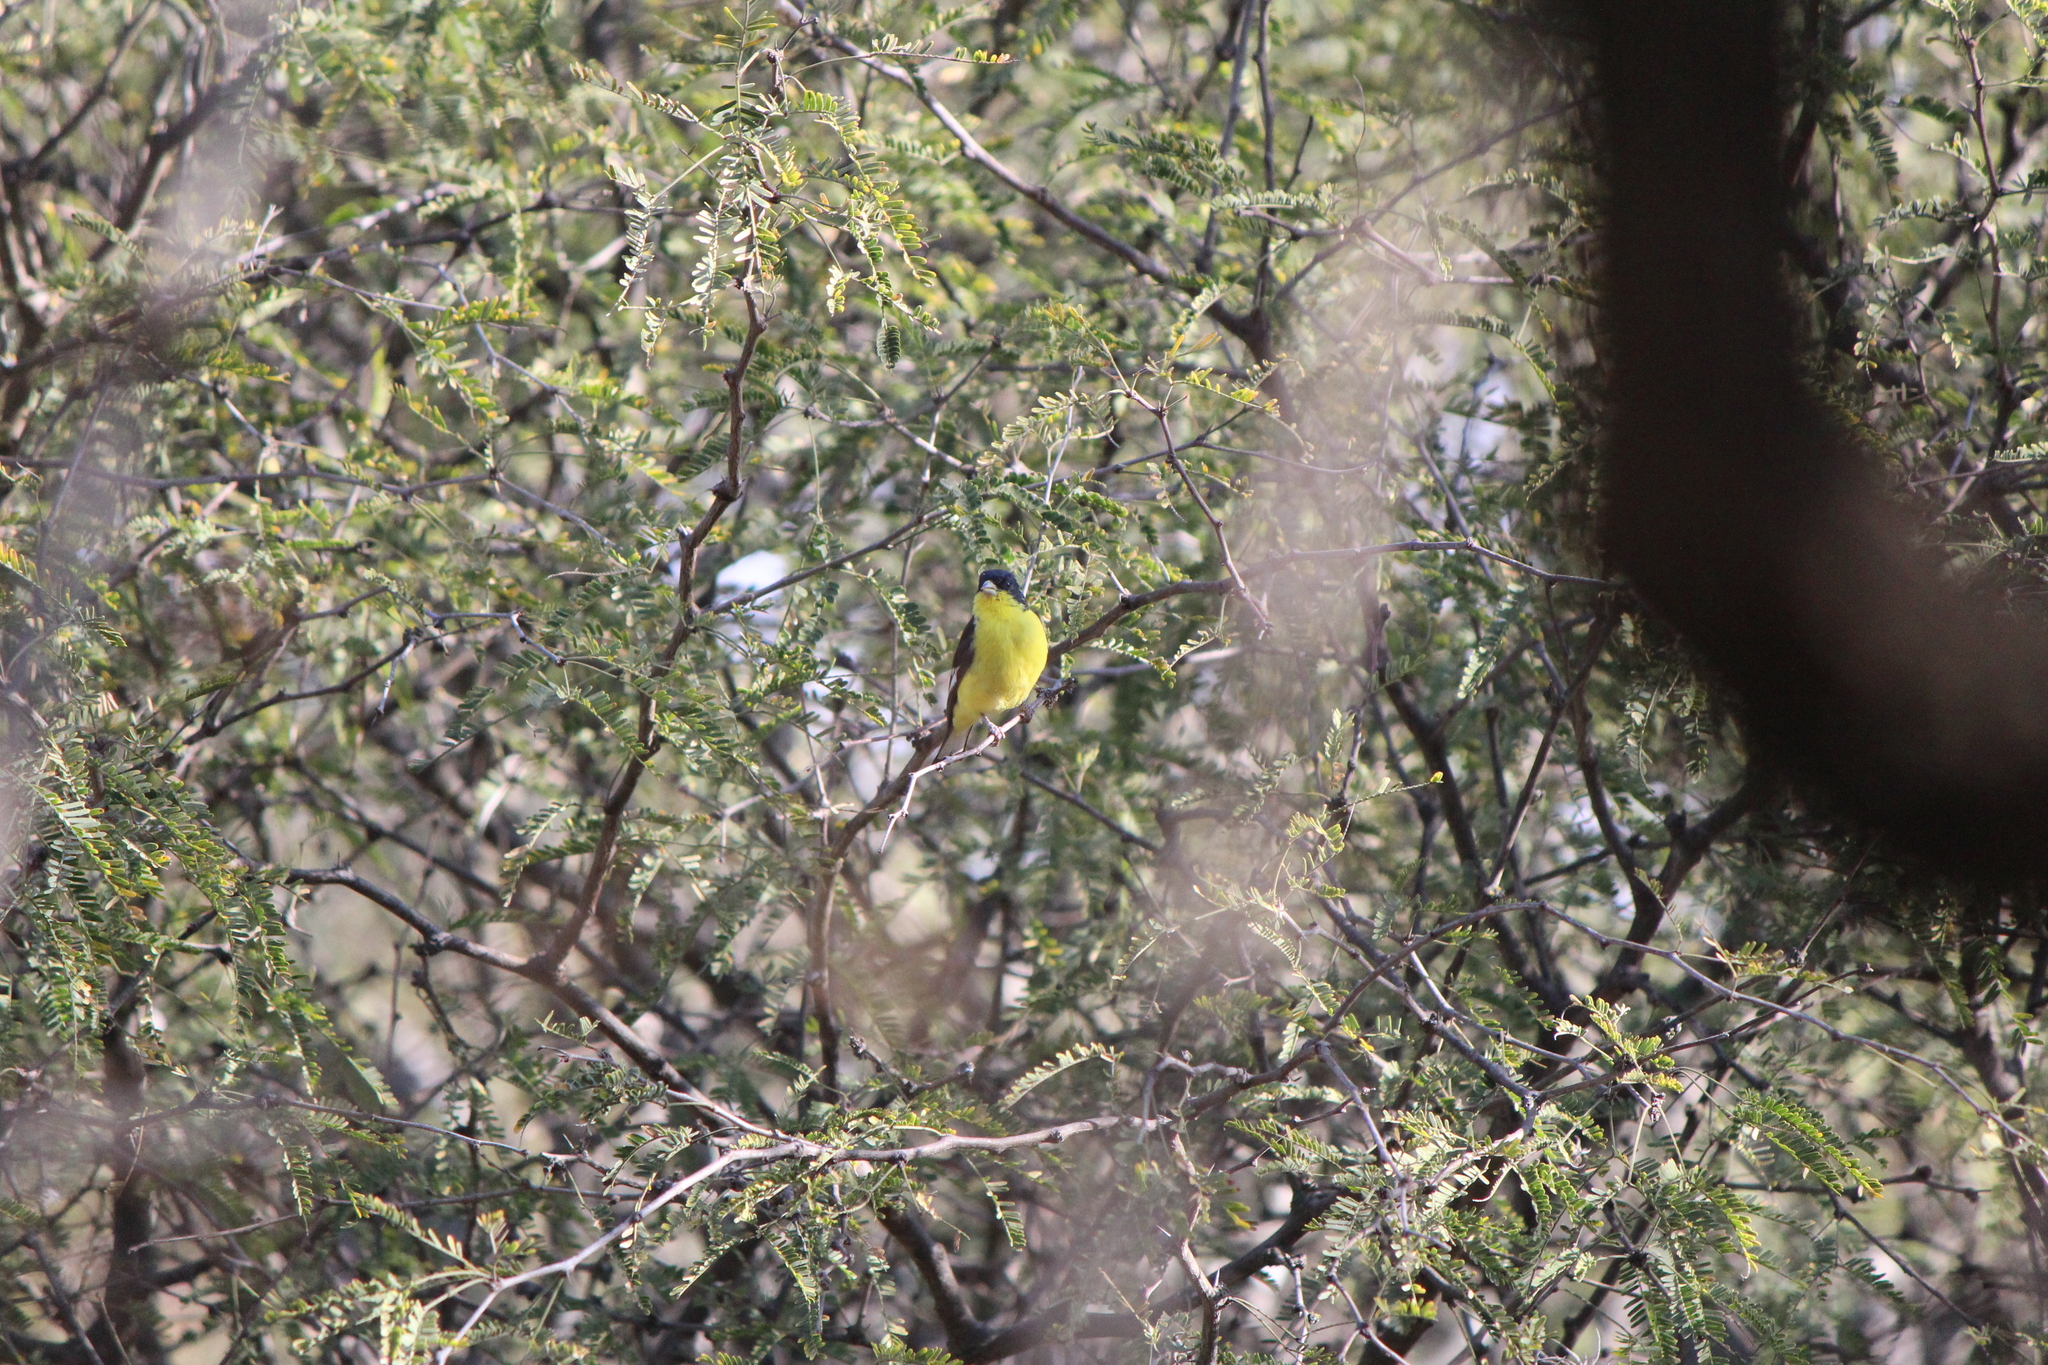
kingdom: Animalia
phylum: Chordata
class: Aves
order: Passeriformes
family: Fringillidae
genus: Spinus
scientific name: Spinus psaltria
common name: Lesser goldfinch
